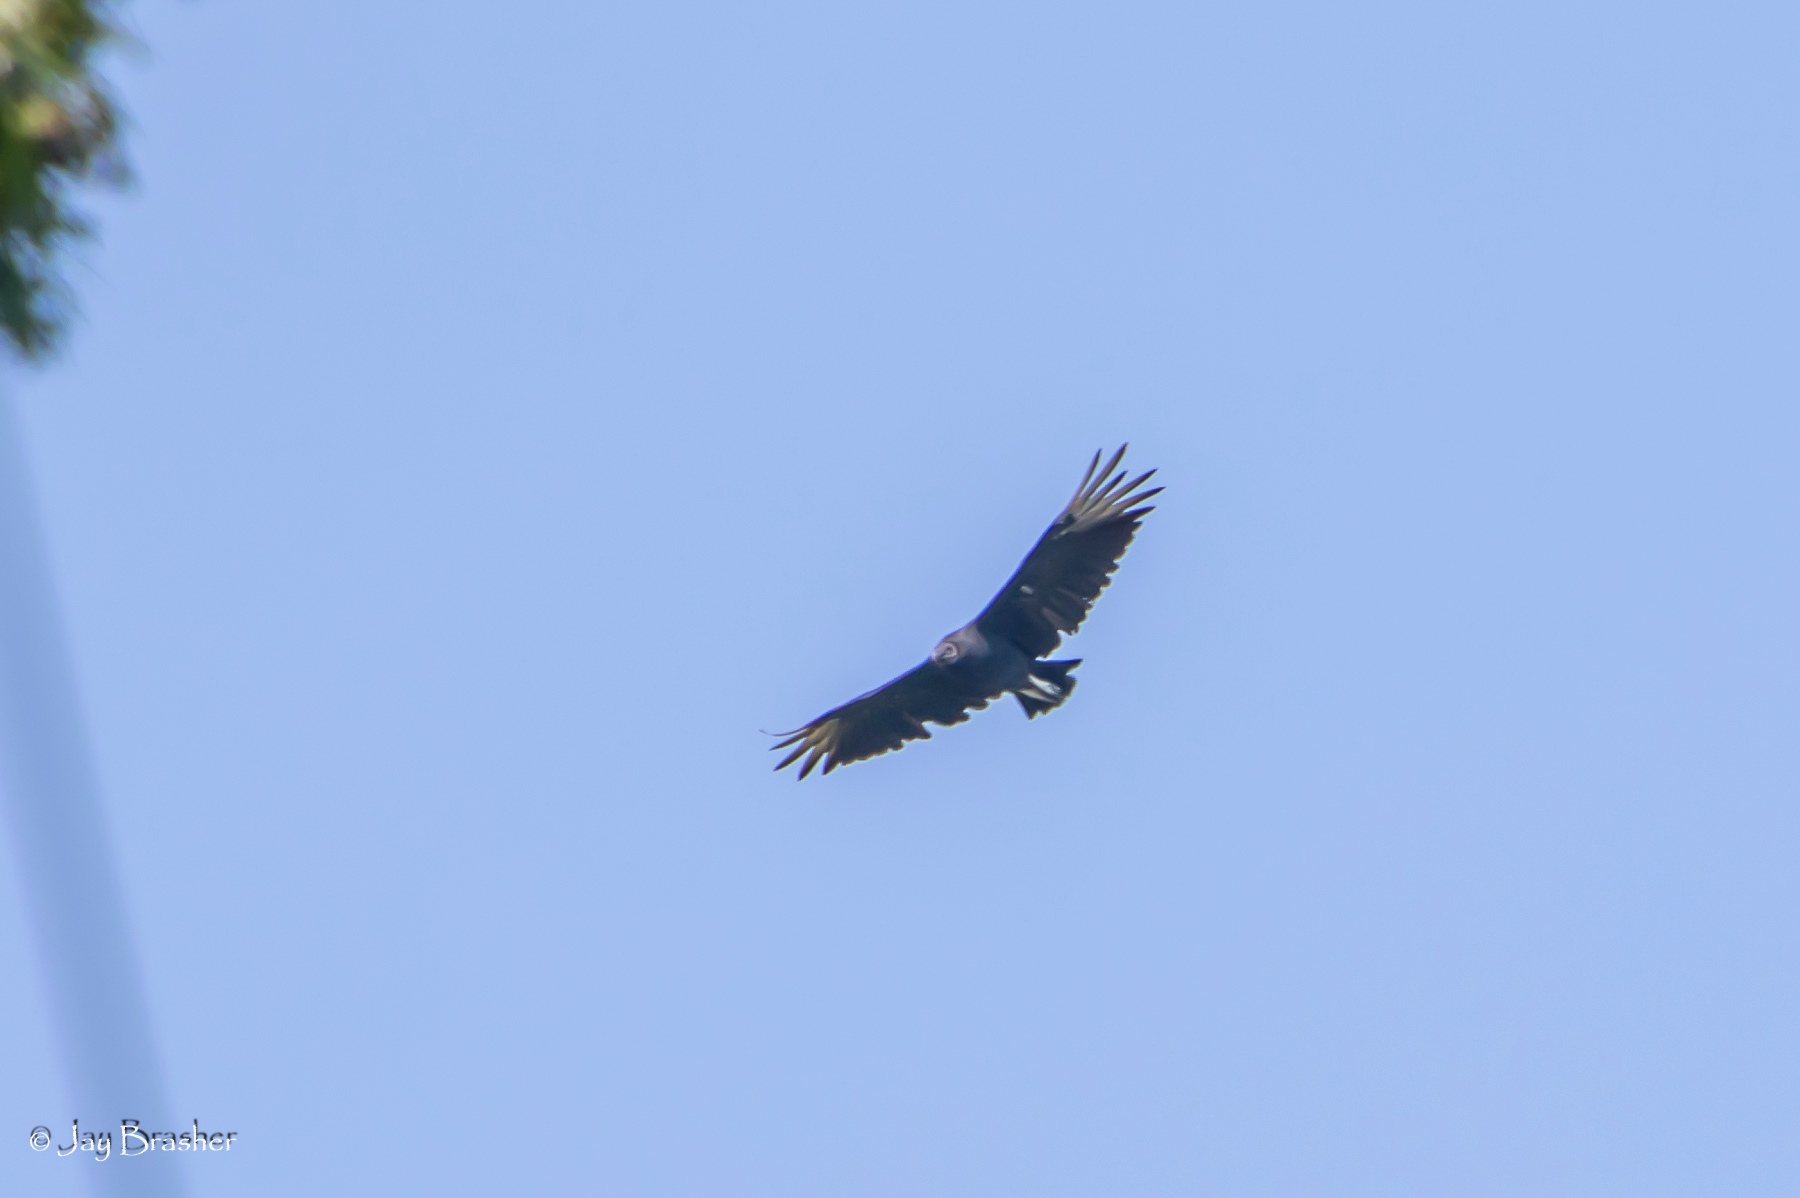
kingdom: Animalia
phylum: Chordata
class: Aves
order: Accipitriformes
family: Cathartidae
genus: Coragyps
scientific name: Coragyps atratus
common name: Black vulture
